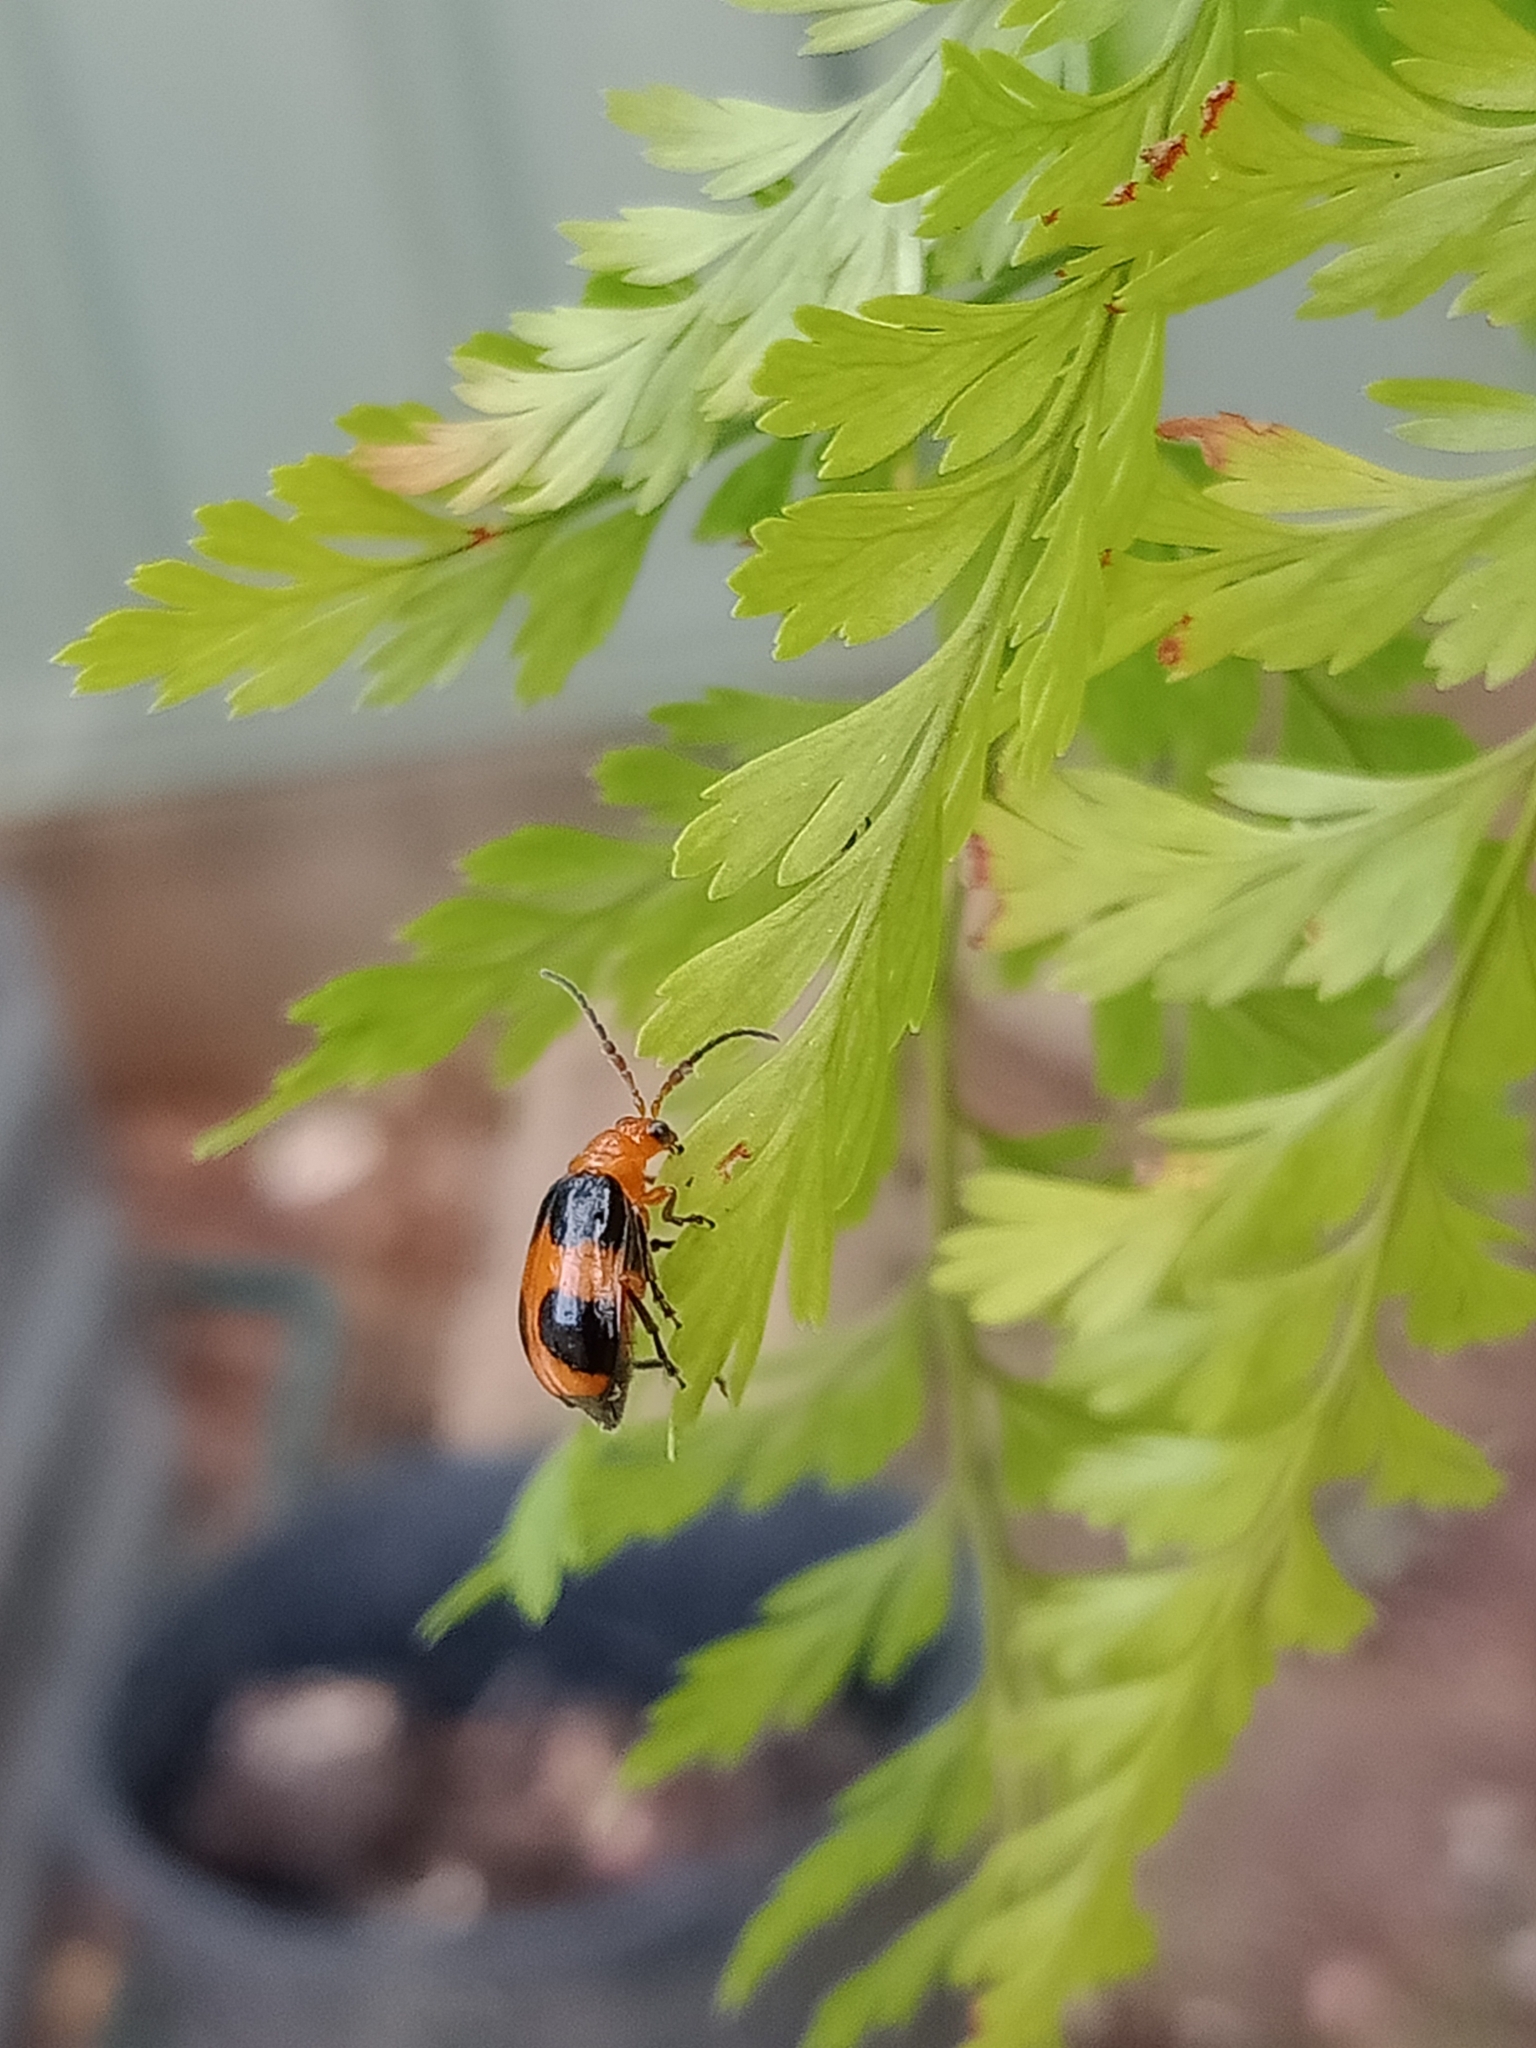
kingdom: Animalia
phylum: Arthropoda
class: Insecta
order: Coleoptera
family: Chrysomelidae
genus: Aulacophora
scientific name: Aulacophora
